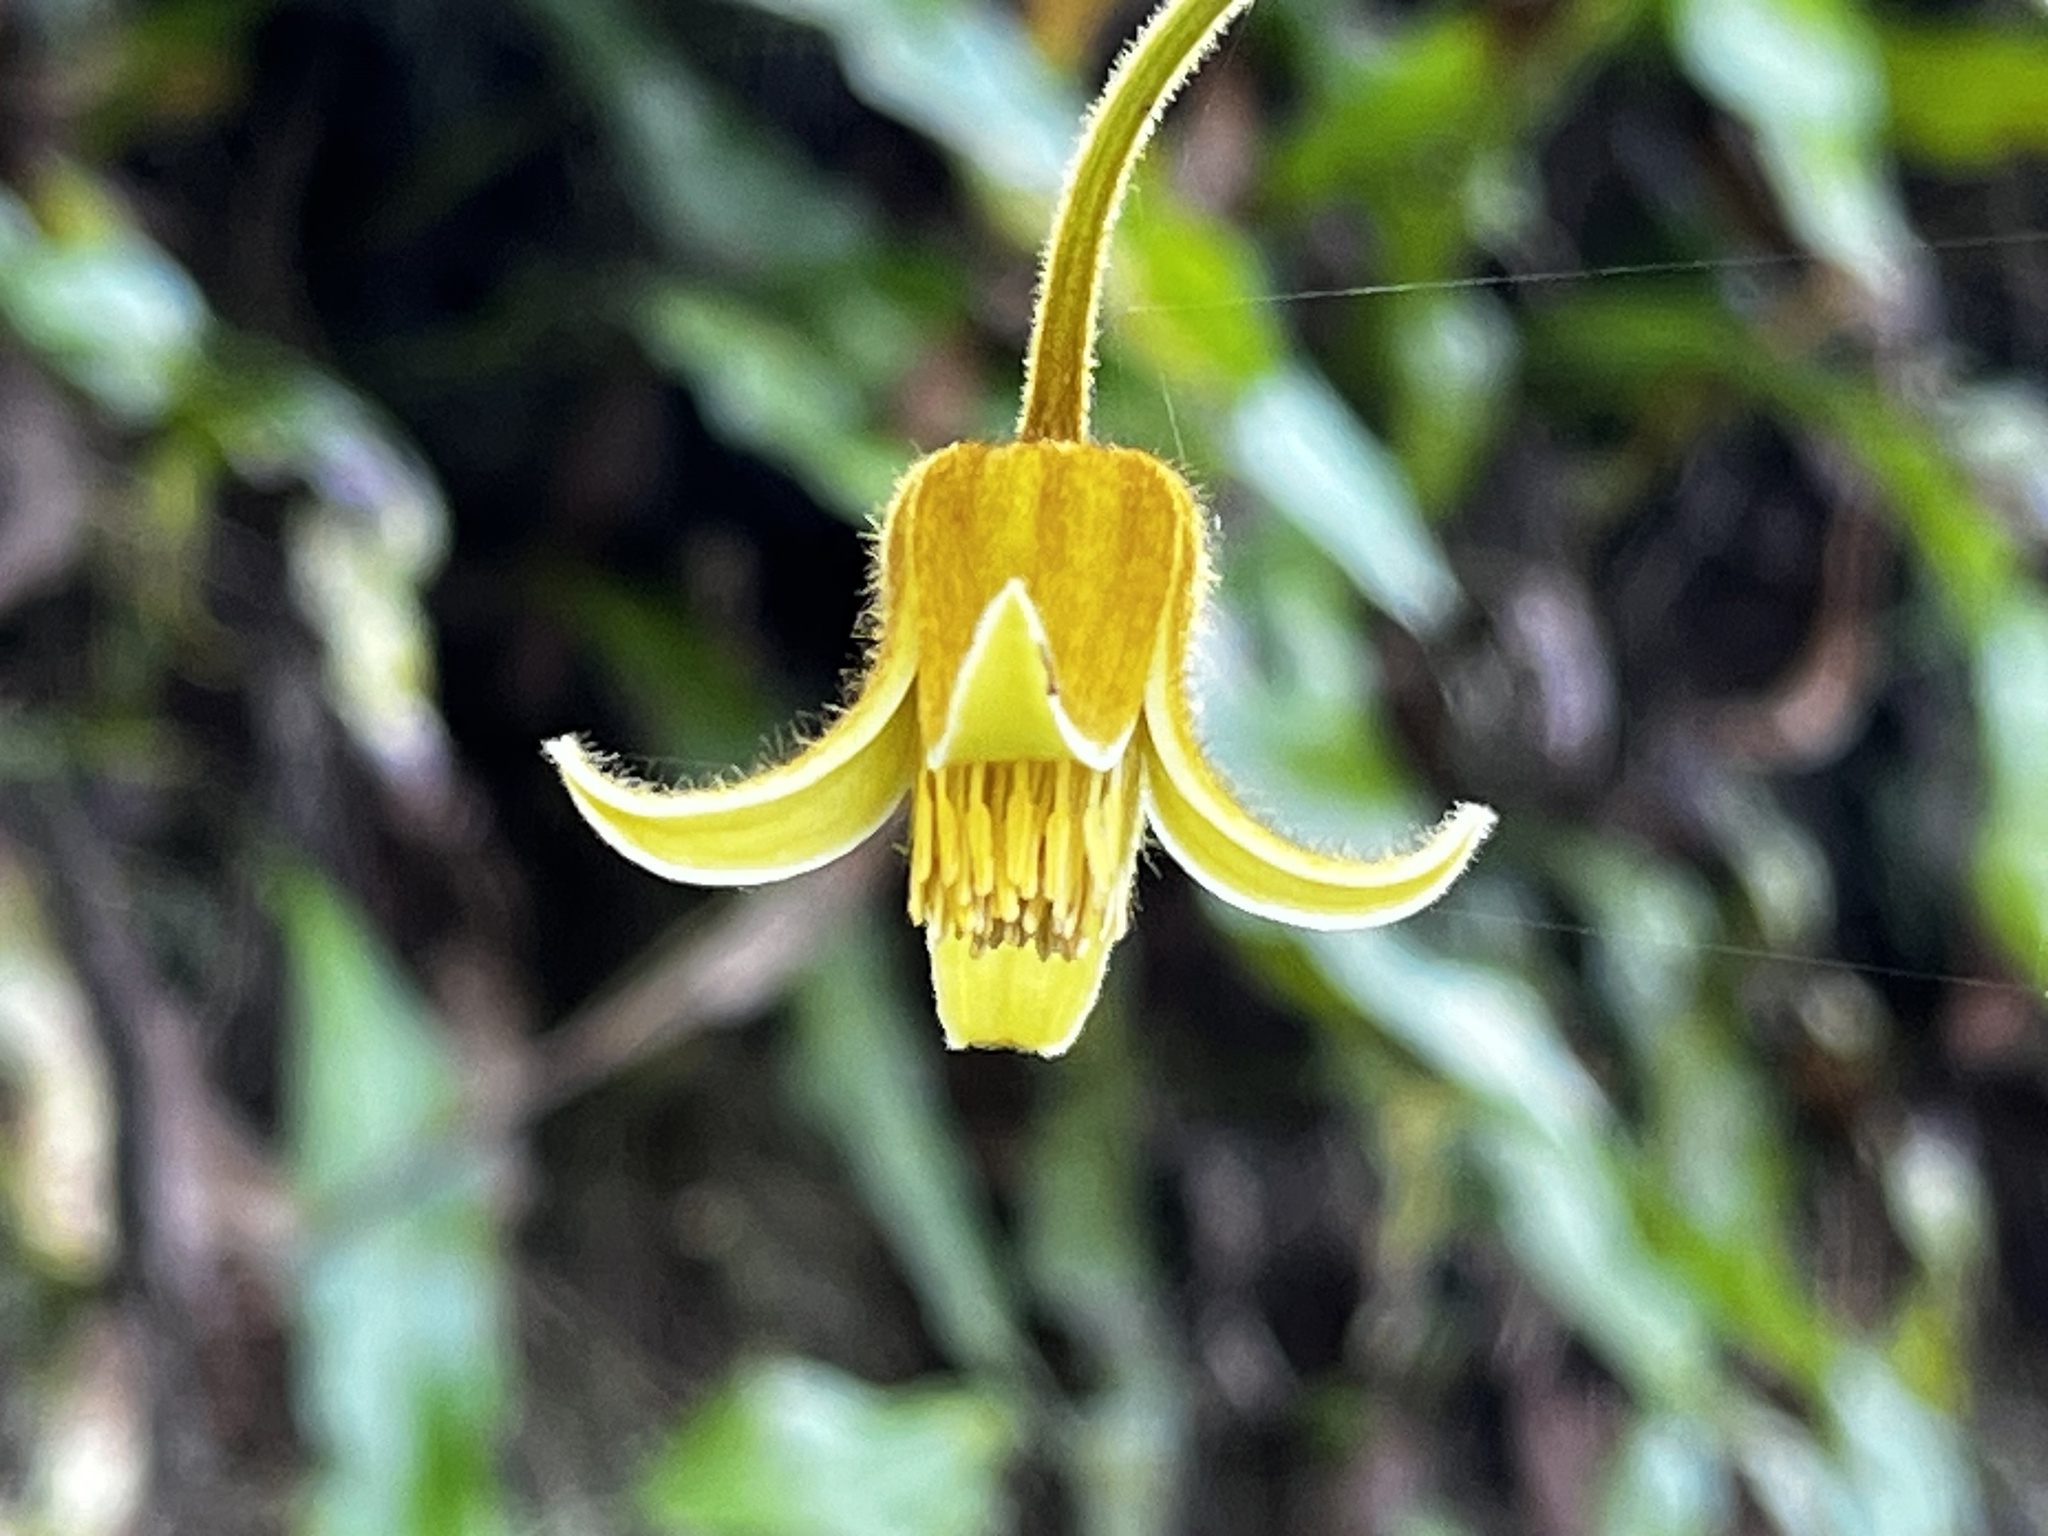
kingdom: Plantae
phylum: Tracheophyta
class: Magnoliopsida
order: Ranunculales
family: Ranunculaceae
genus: Clematis
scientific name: Clematis leschenaultiana
